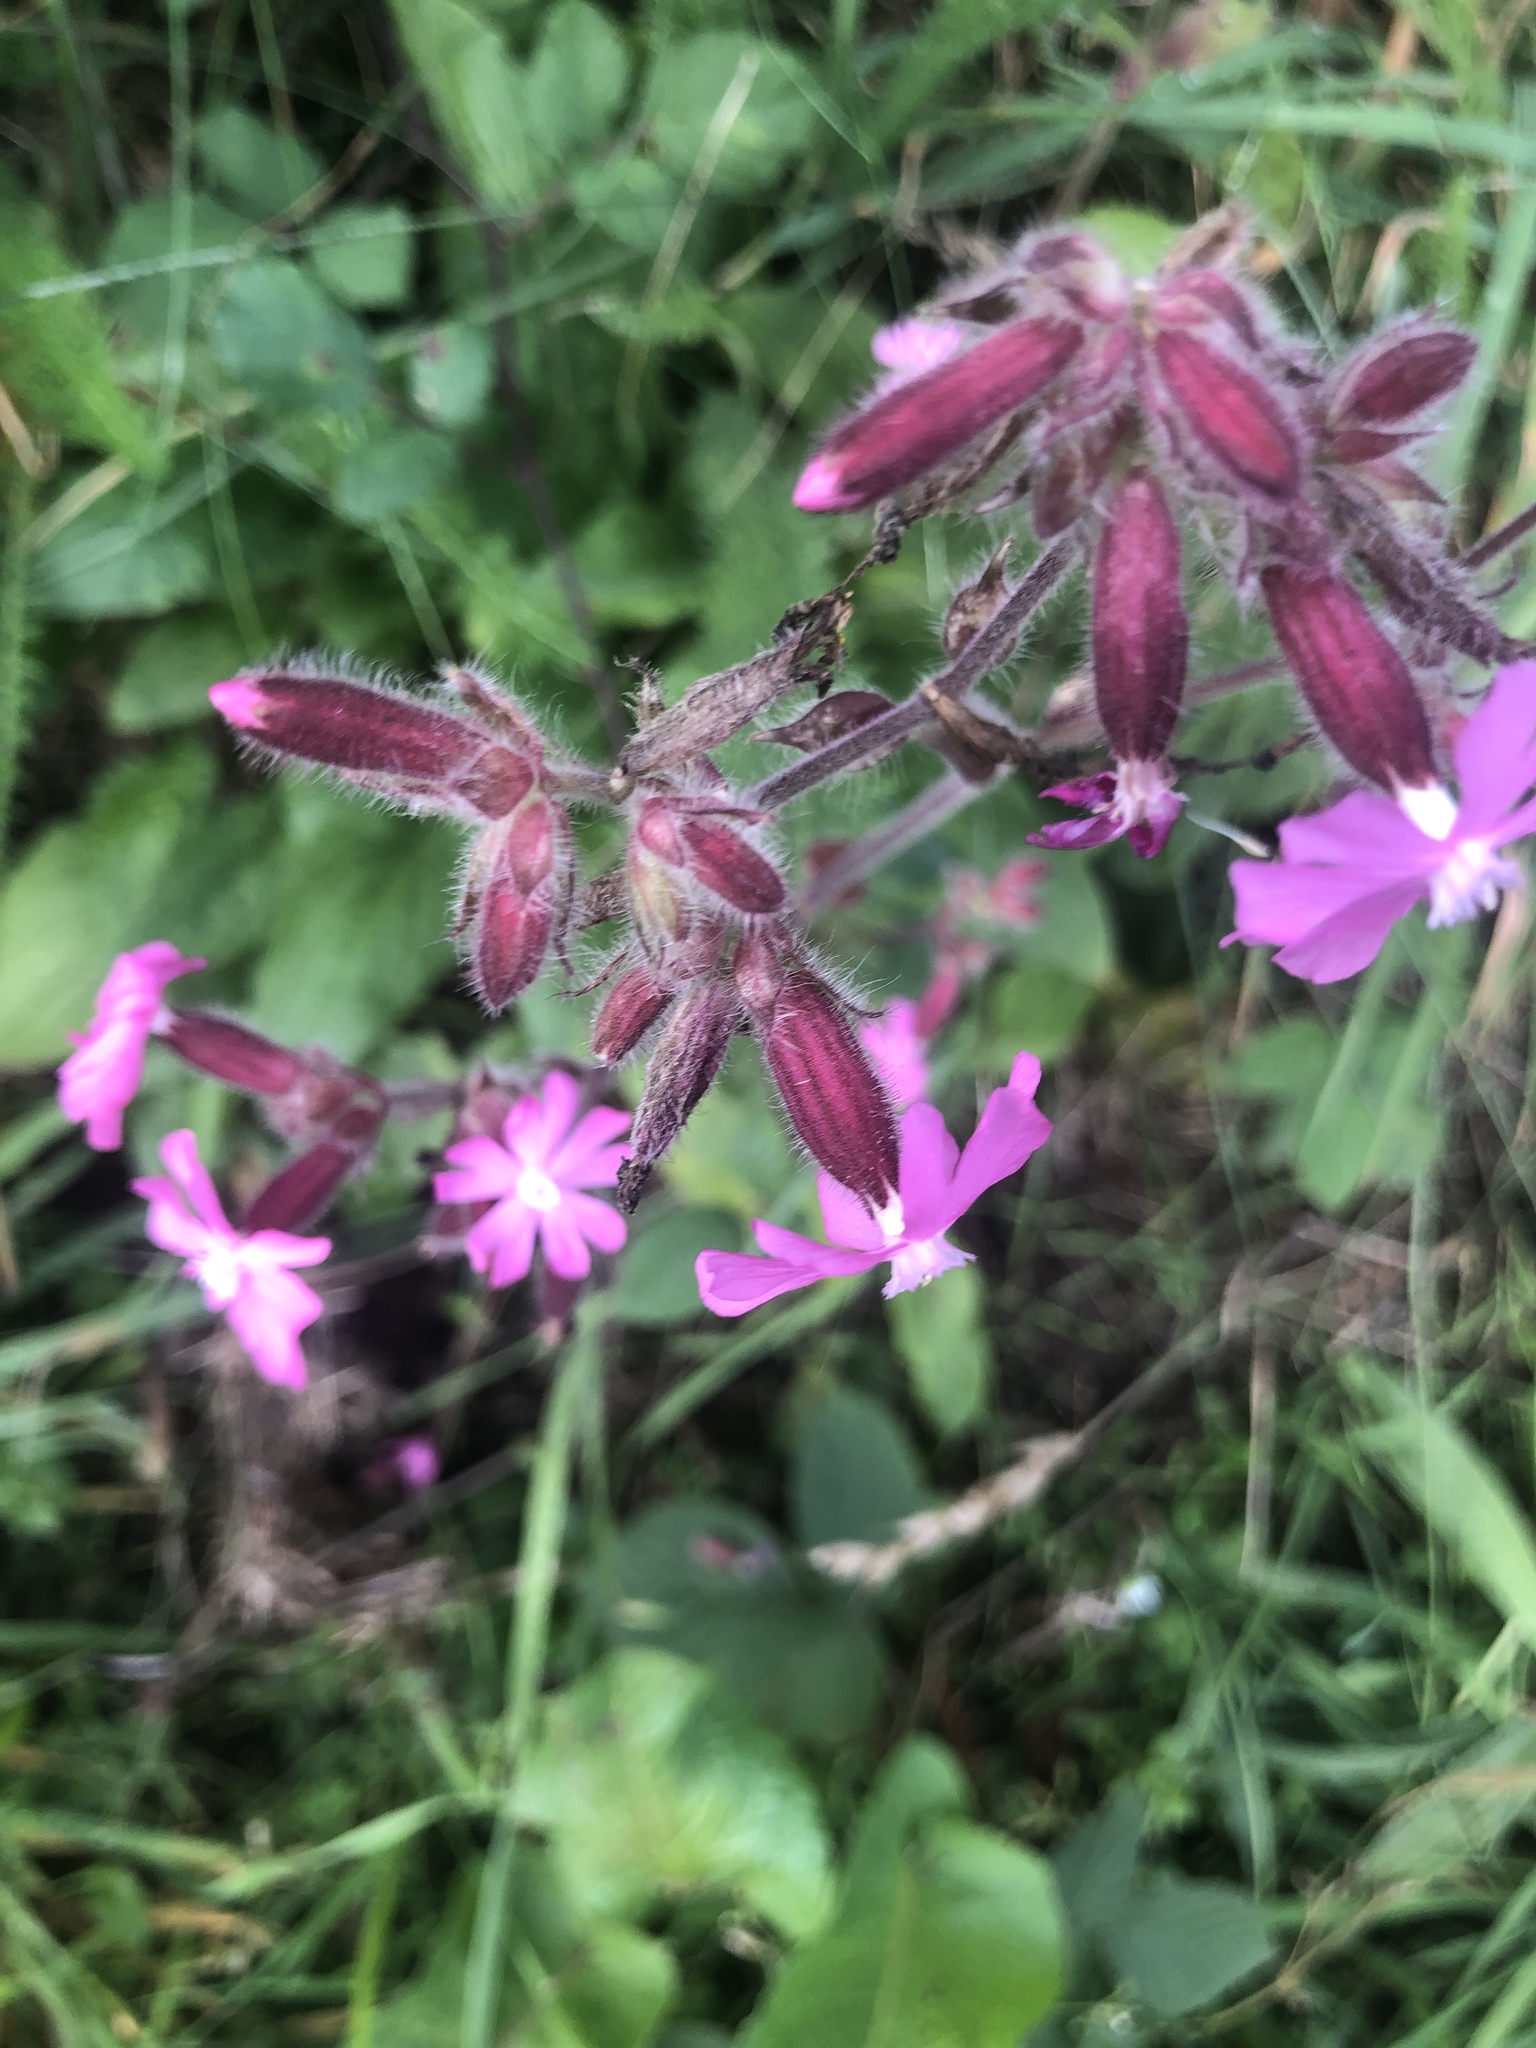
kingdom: Plantae
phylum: Tracheophyta
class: Magnoliopsida
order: Caryophyllales
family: Caryophyllaceae
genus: Silene
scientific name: Silene dioica
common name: Red campion
